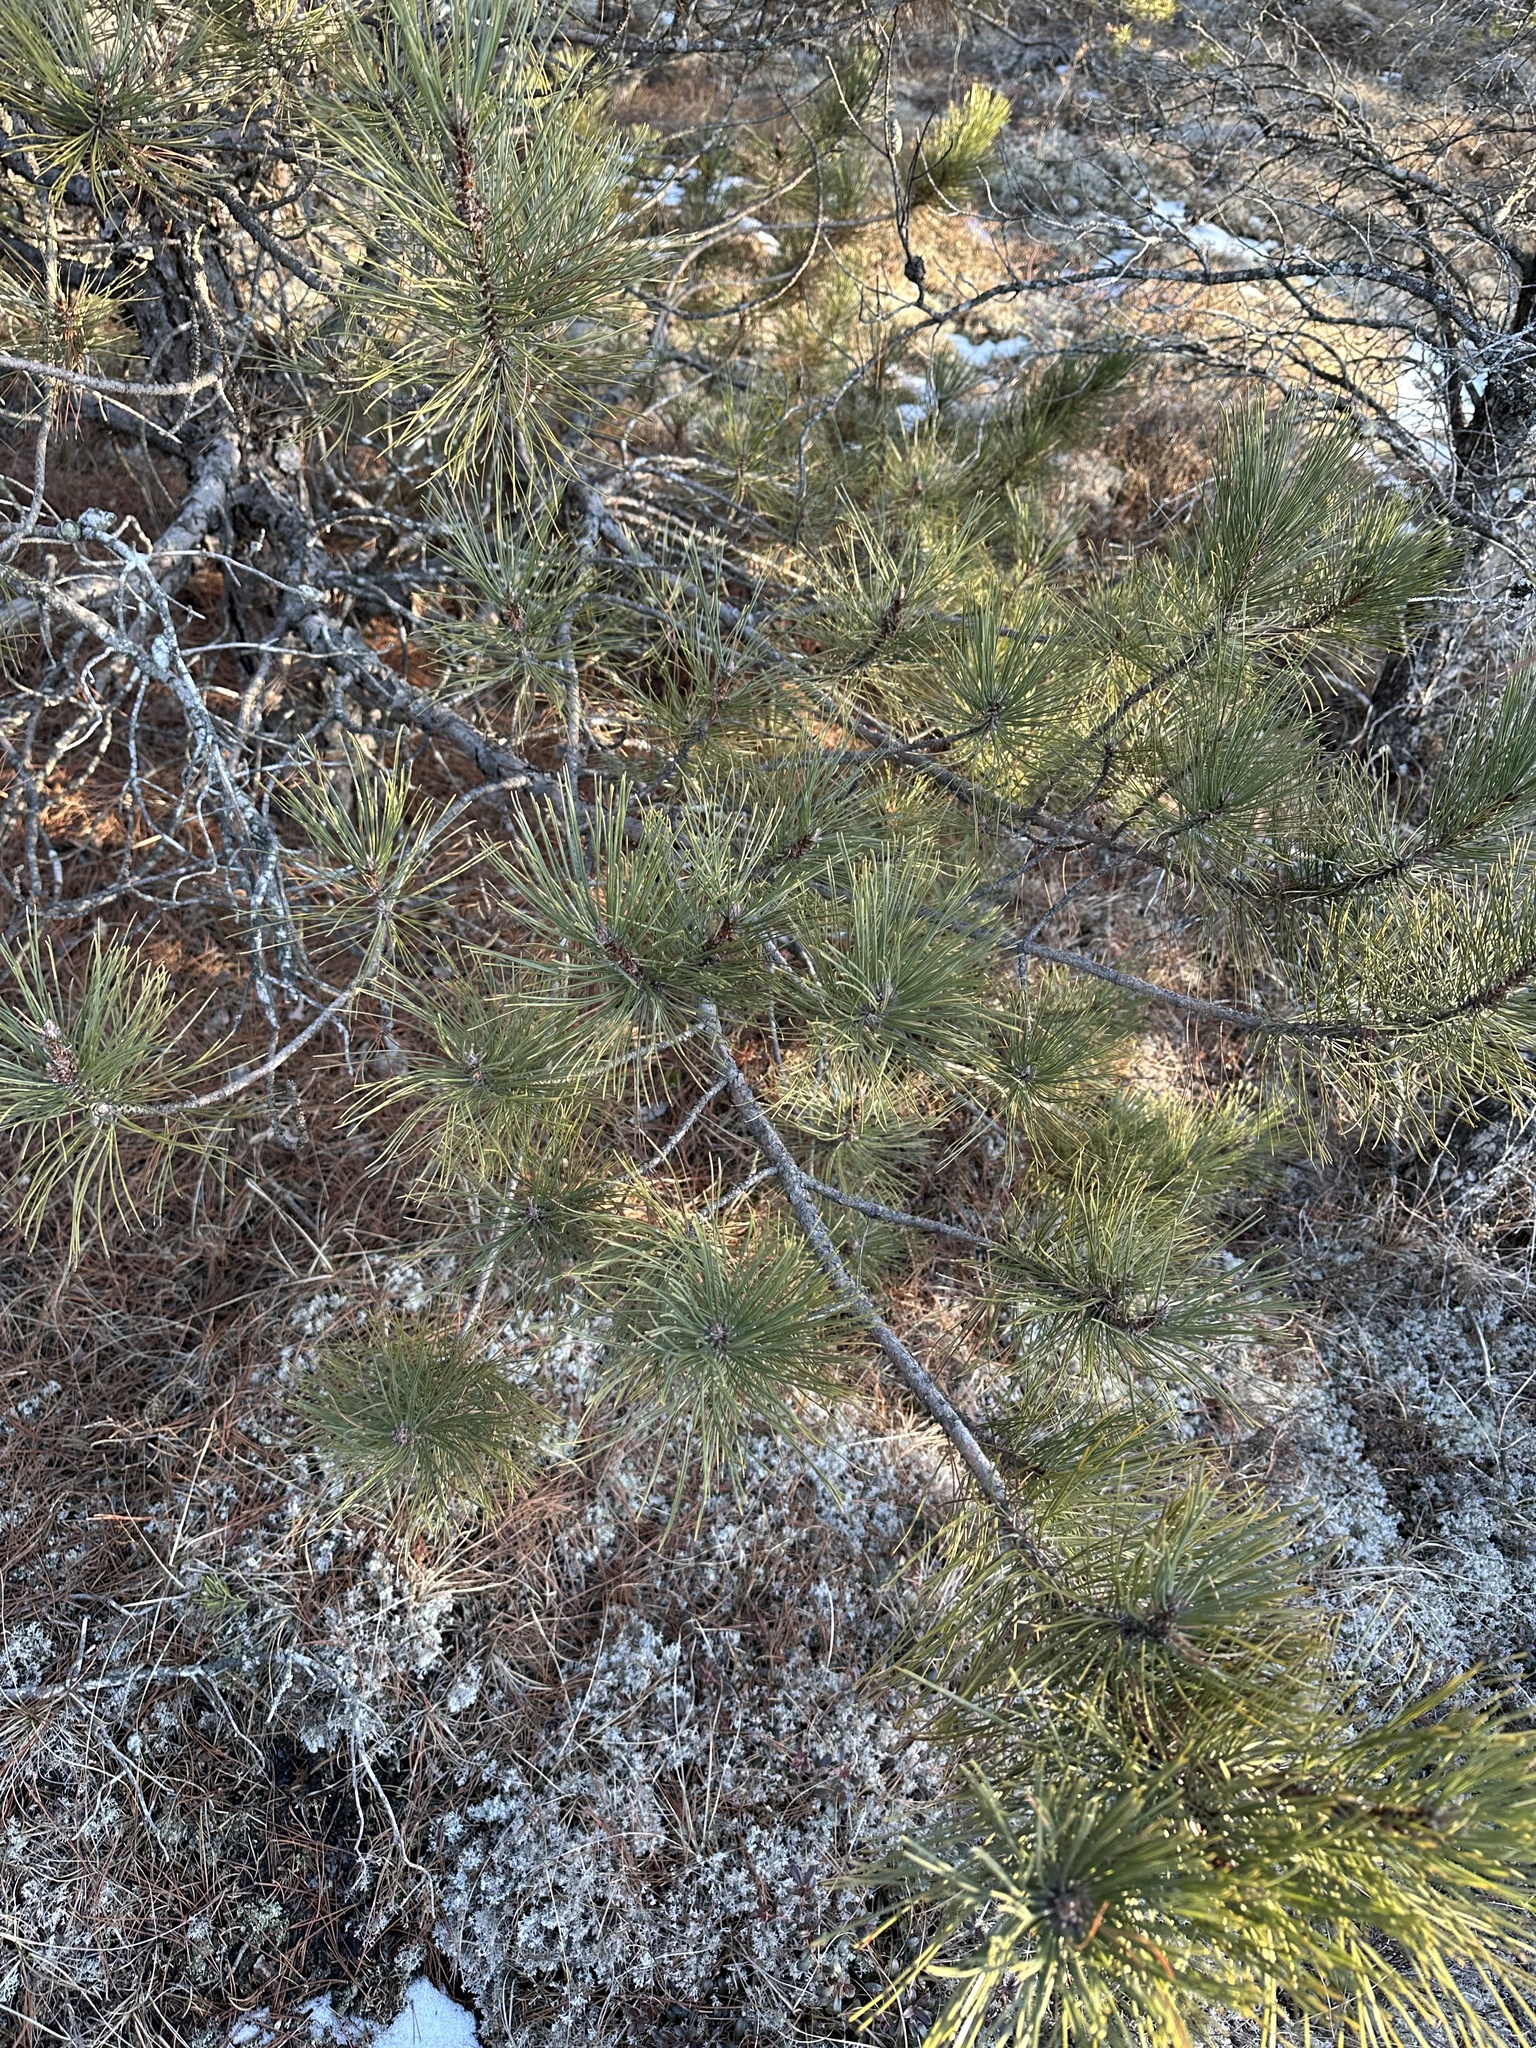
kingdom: Plantae
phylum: Tracheophyta
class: Pinopsida
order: Pinales
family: Pinaceae
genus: Pinus
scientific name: Pinus resinosa
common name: Norway pine
